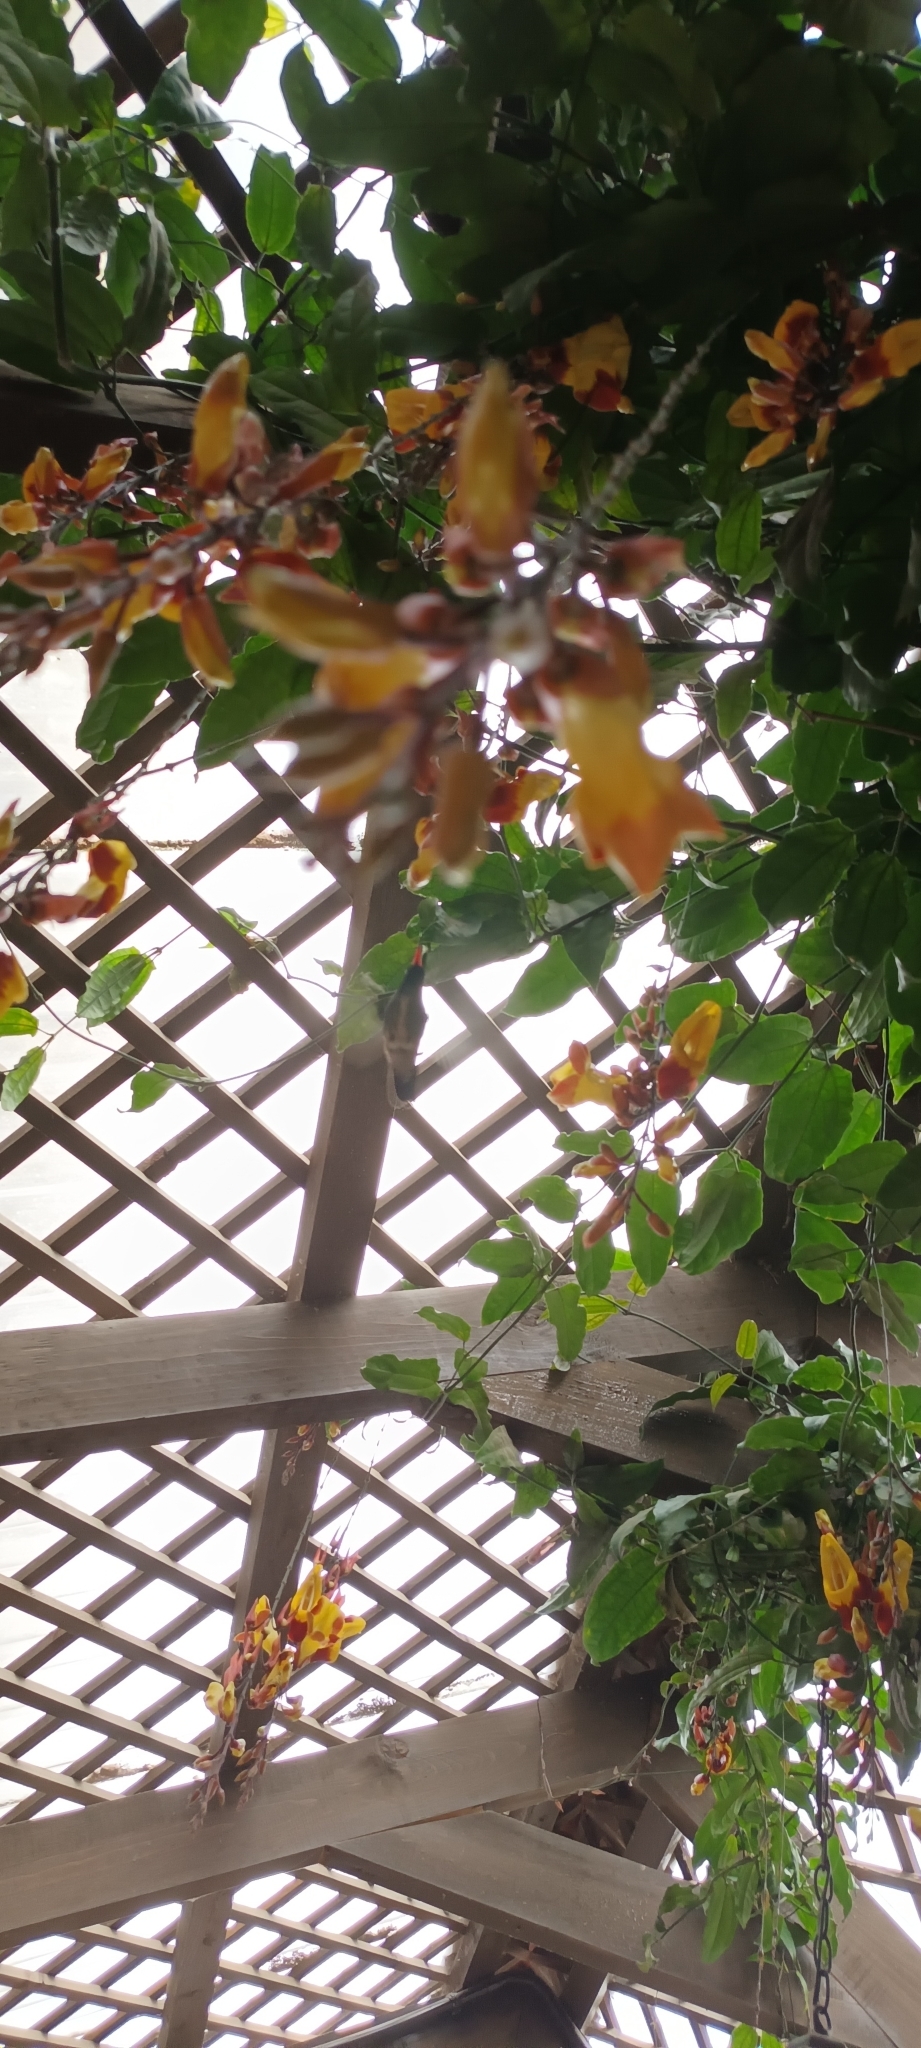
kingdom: Animalia
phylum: Chordata
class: Aves
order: Apodiformes
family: Trochilidae
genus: Basilinna
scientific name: Basilinna leucotis
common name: White-eared hummingbird
